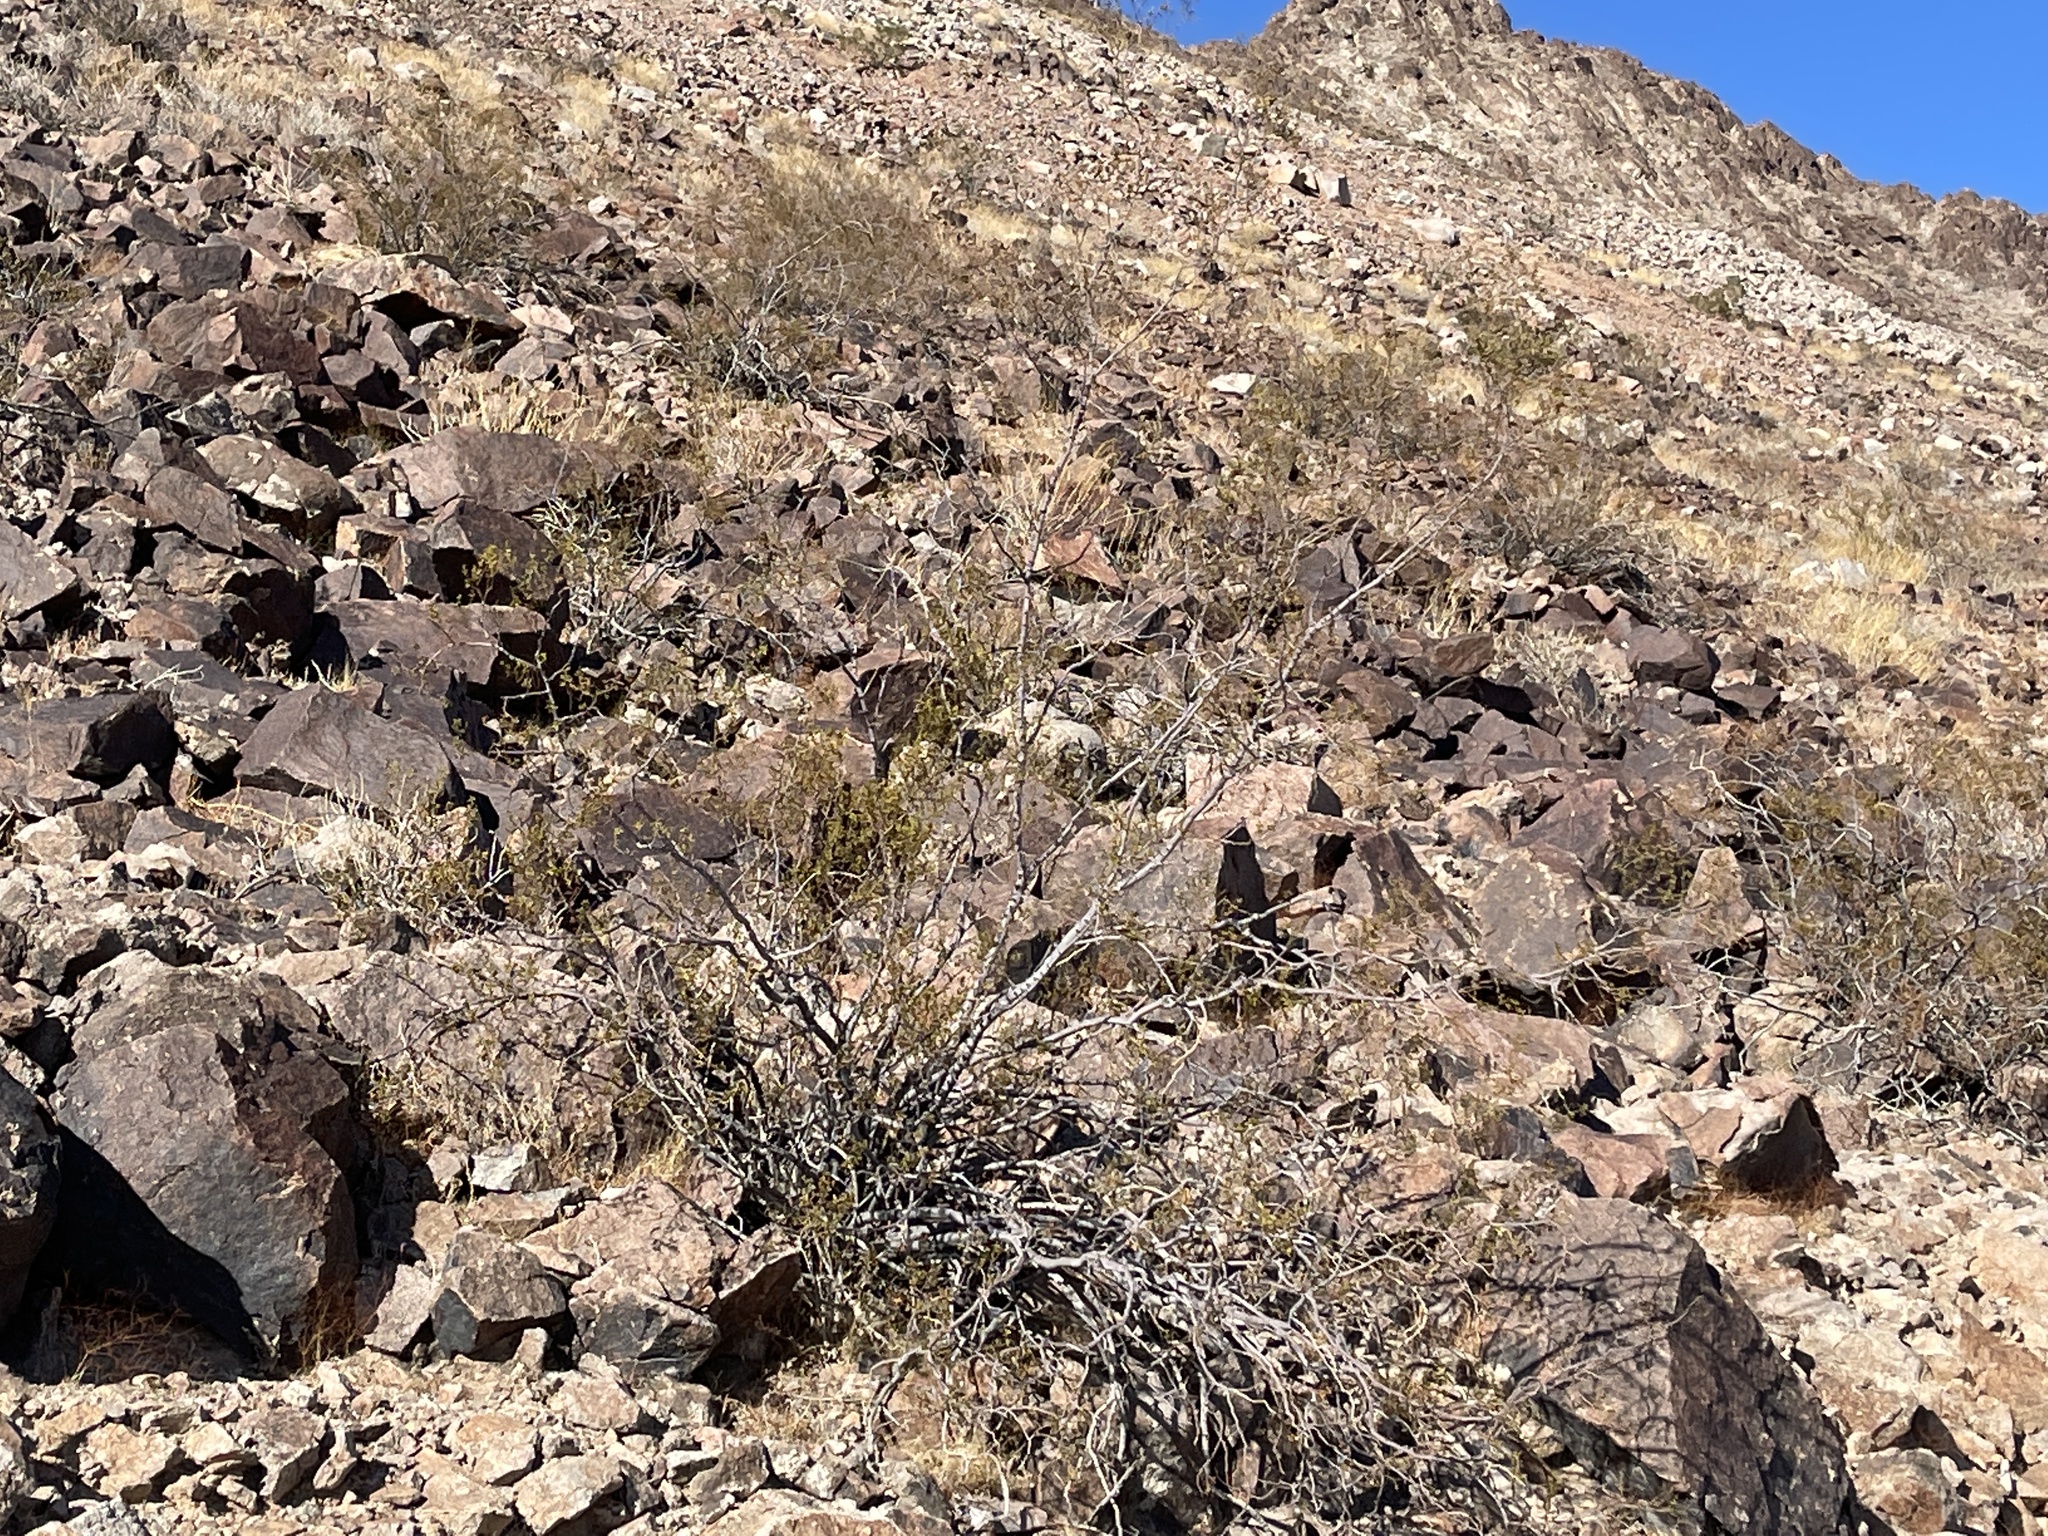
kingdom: Plantae
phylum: Tracheophyta
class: Magnoliopsida
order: Zygophyllales
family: Zygophyllaceae
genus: Larrea
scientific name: Larrea tridentata
